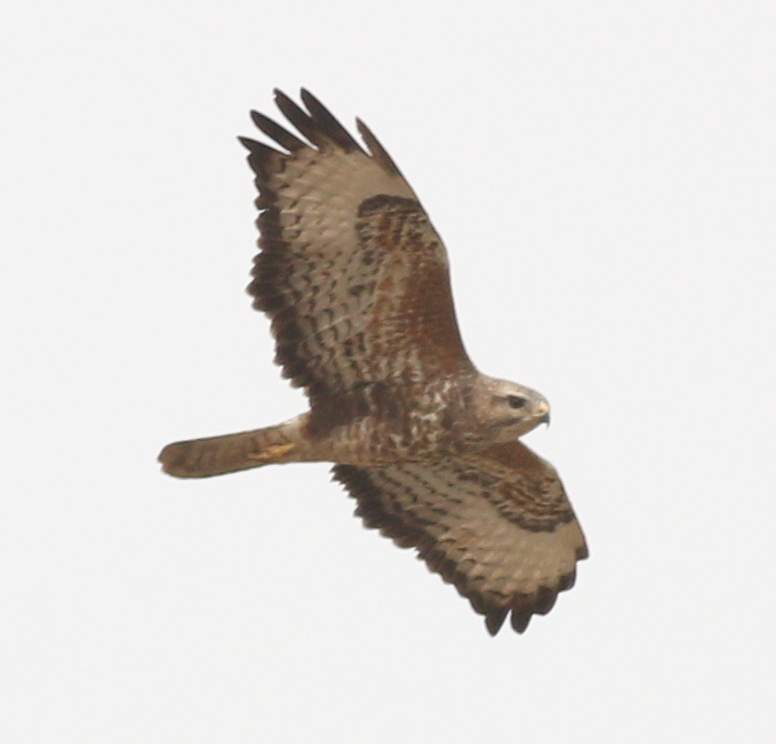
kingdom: Animalia
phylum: Chordata
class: Aves
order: Accipitriformes
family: Accipitridae
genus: Buteo
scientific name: Buteo buteo
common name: Common buzzard
